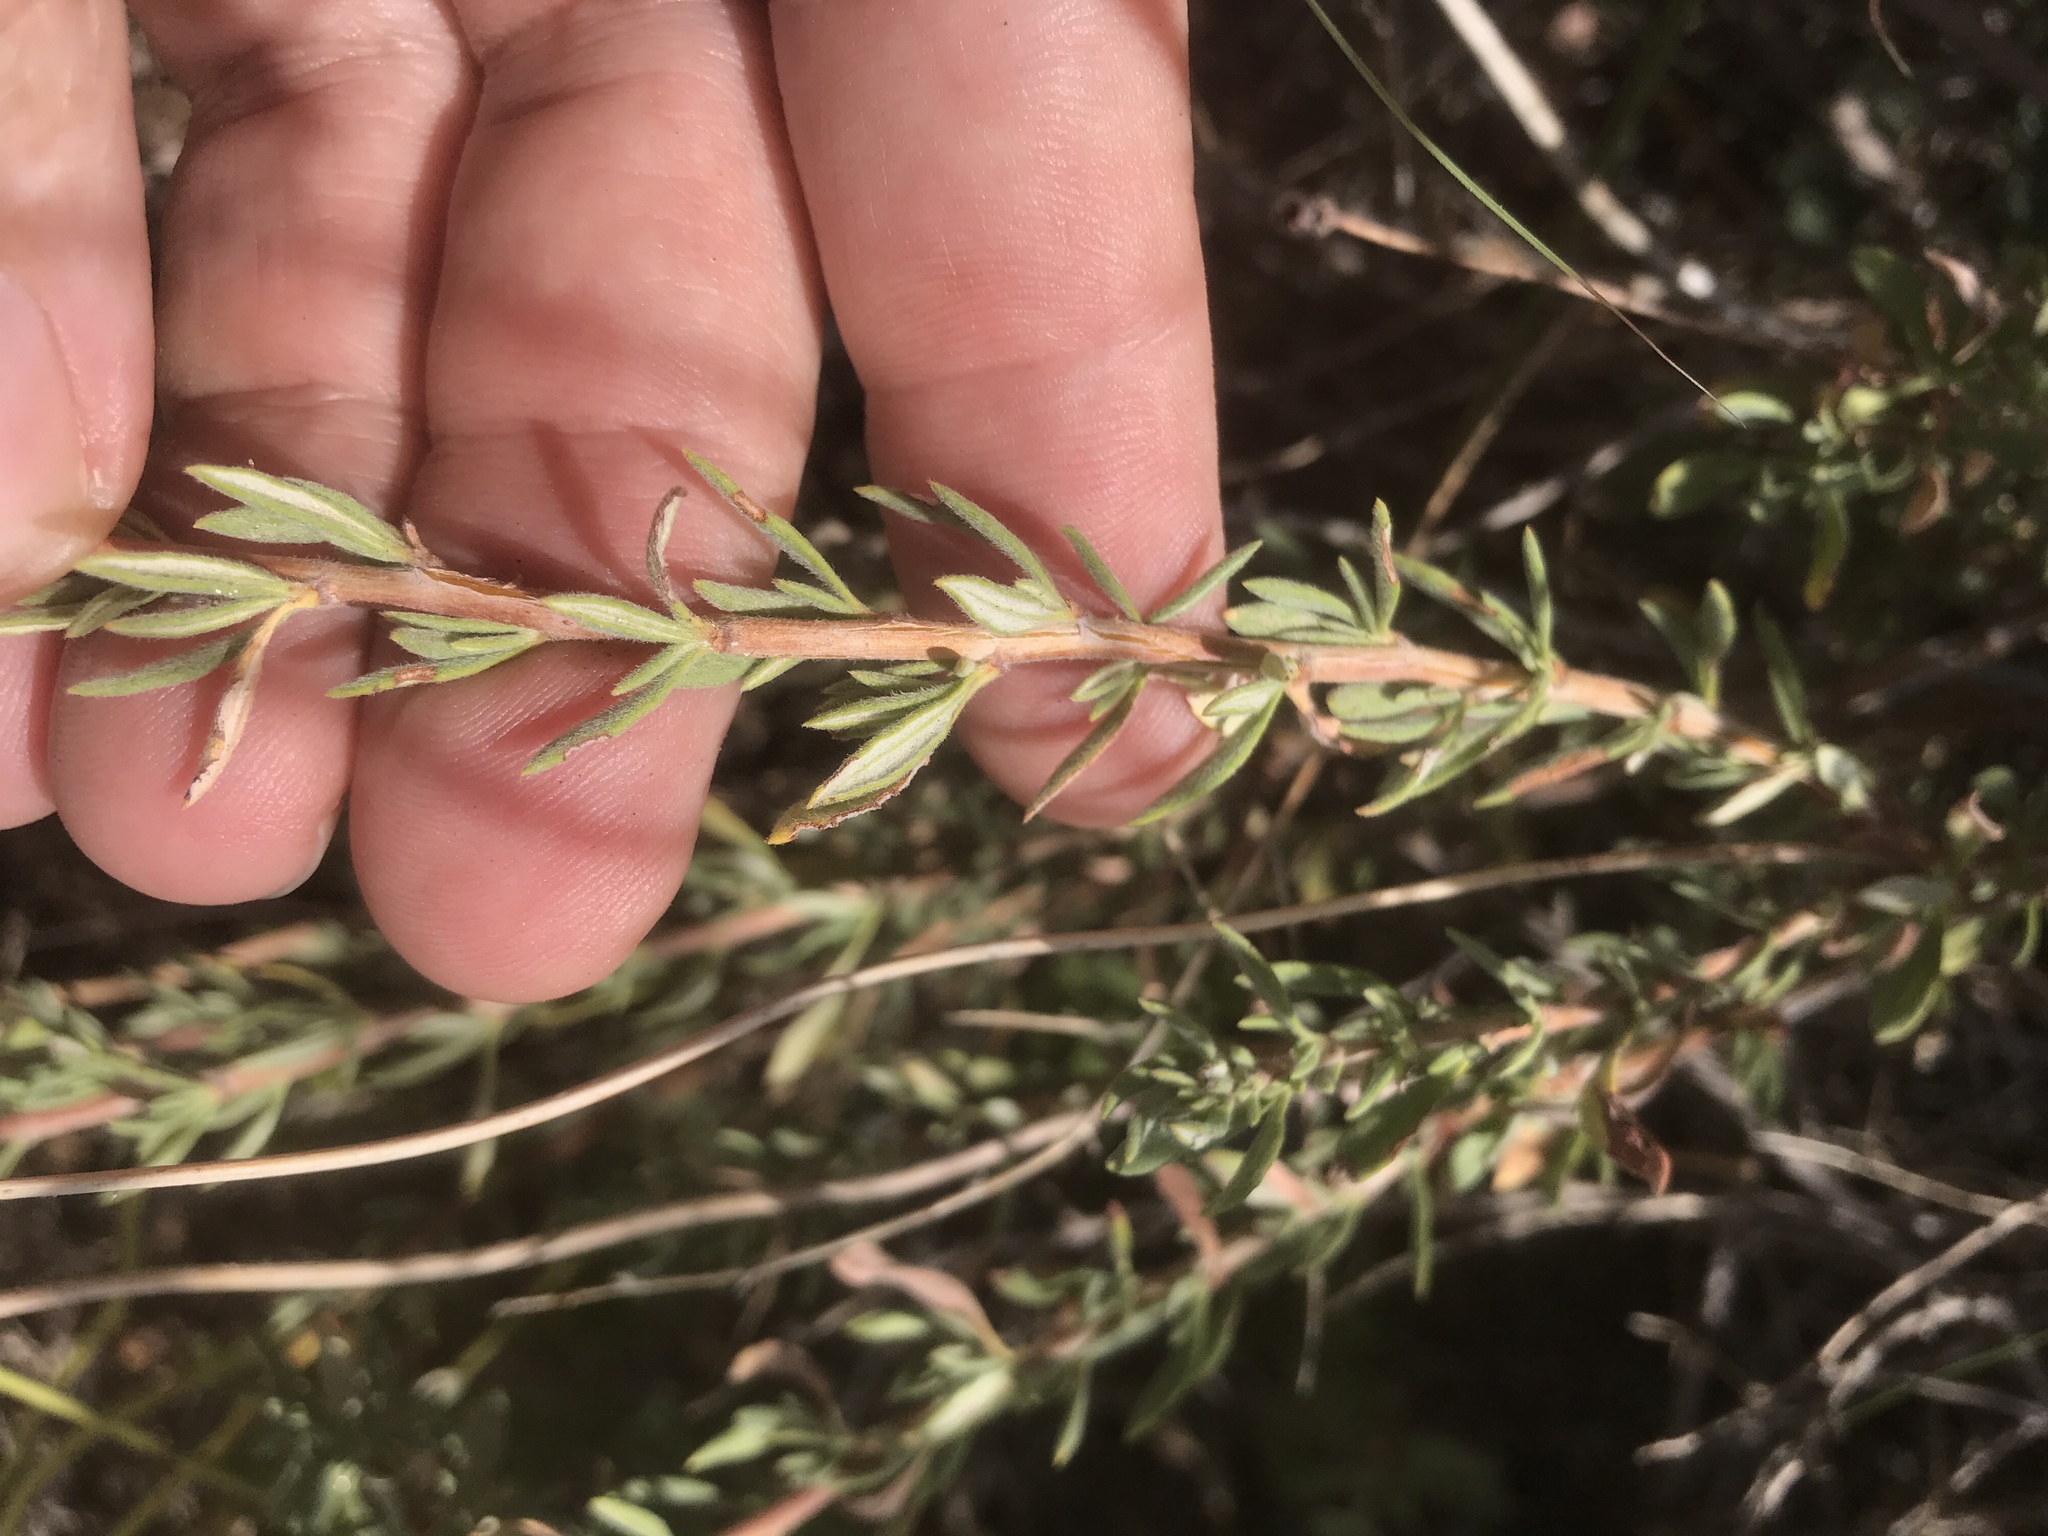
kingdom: Plantae
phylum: Tracheophyta
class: Magnoliopsida
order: Caryophyllales
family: Polygonaceae
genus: Eriogonum
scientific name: Eriogonum fasciculatum
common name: California wild buckwheat
